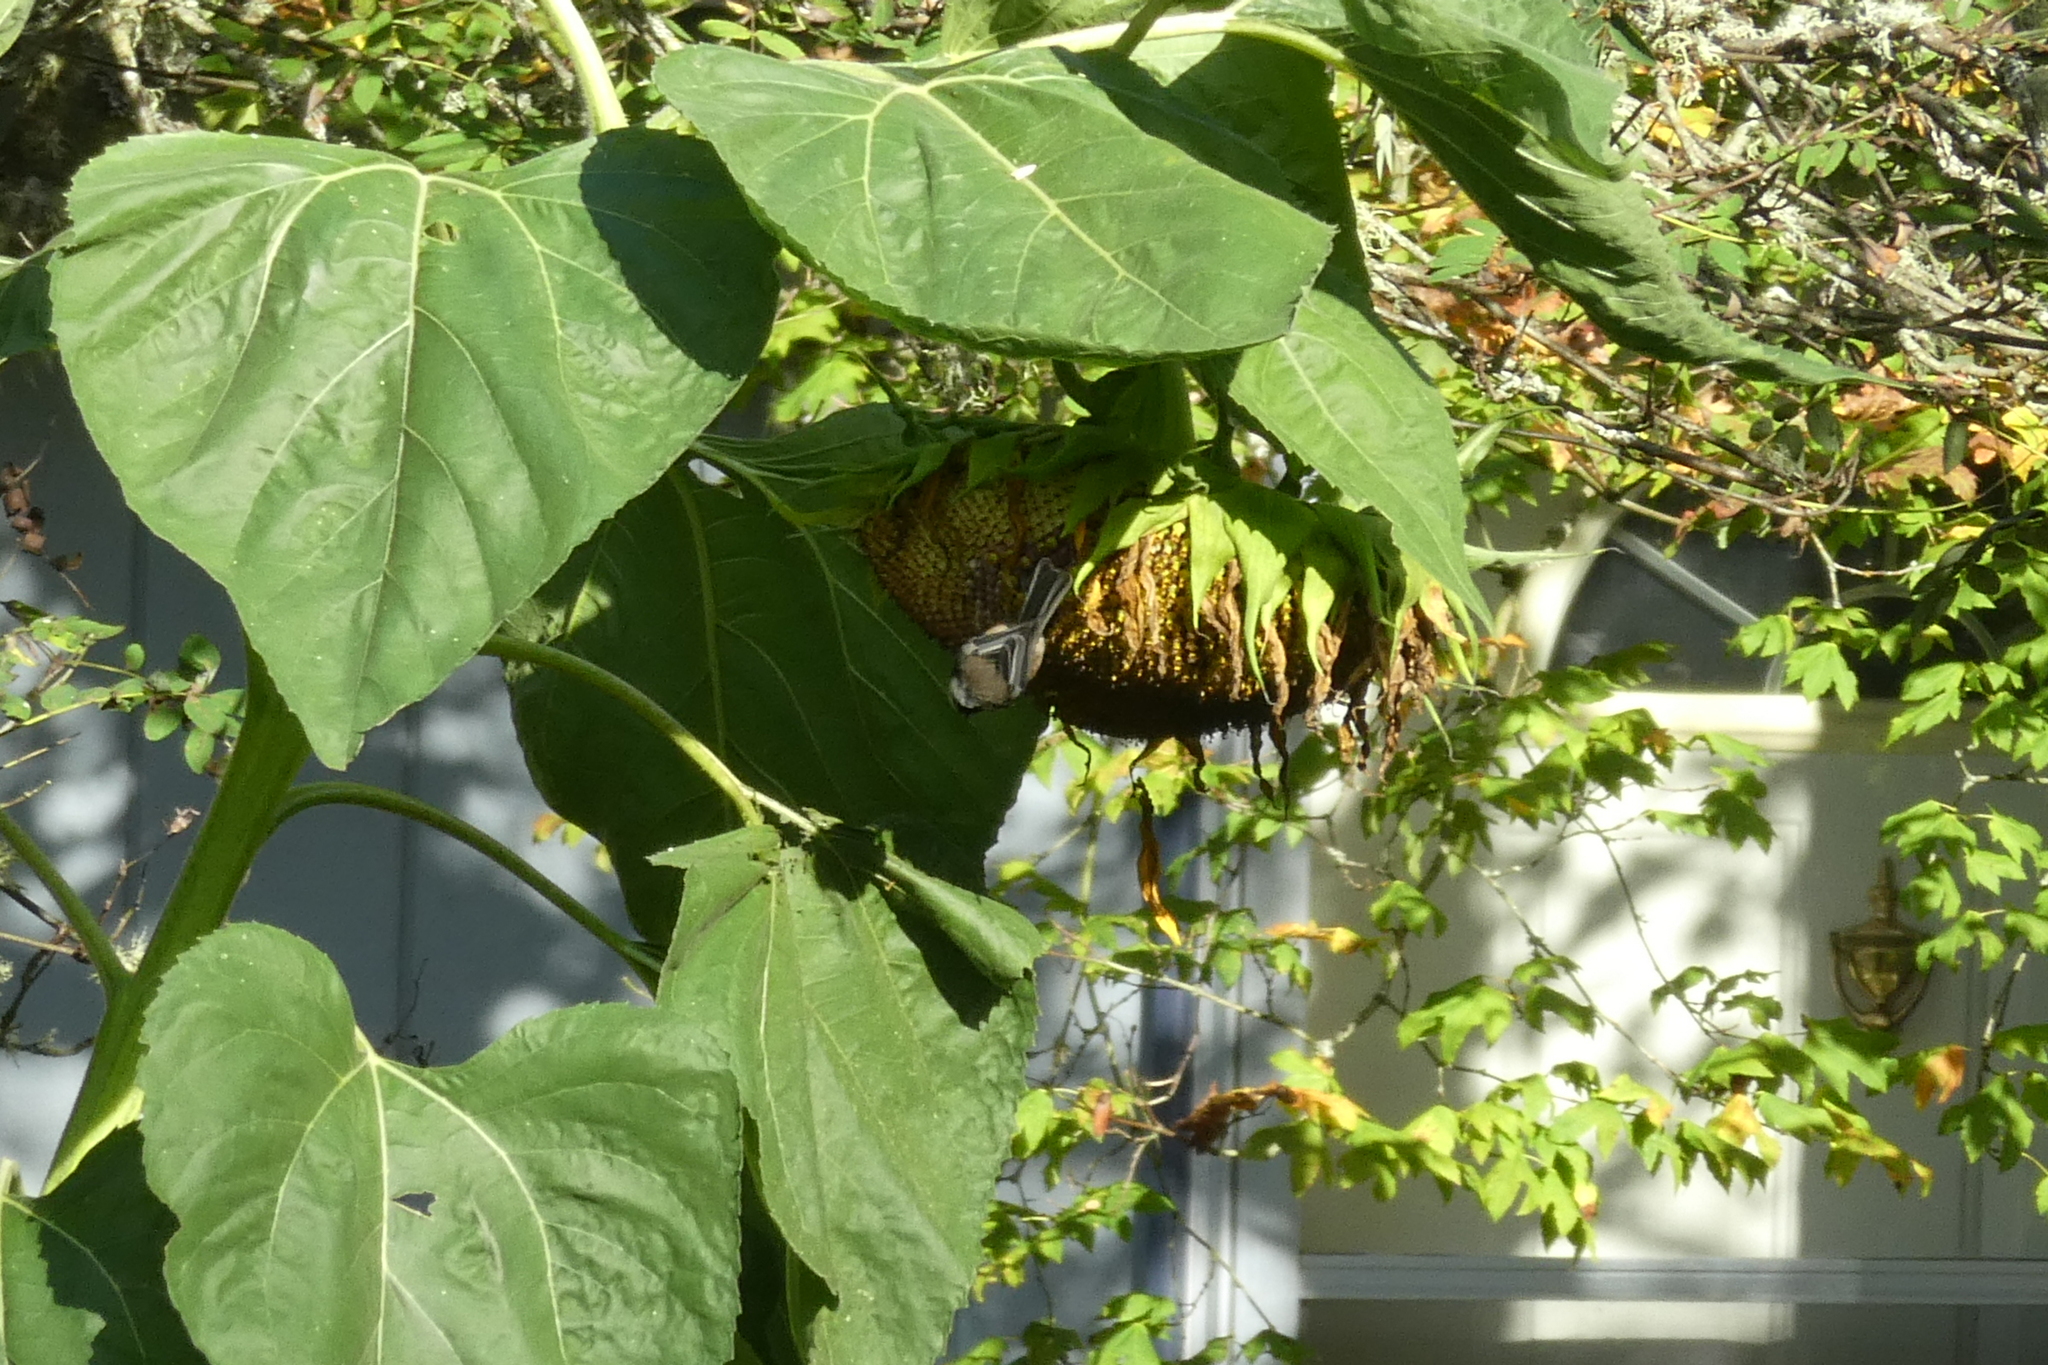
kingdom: Animalia
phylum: Chordata
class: Aves
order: Passeriformes
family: Paridae
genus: Poecile
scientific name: Poecile atricapillus
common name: Black-capped chickadee
